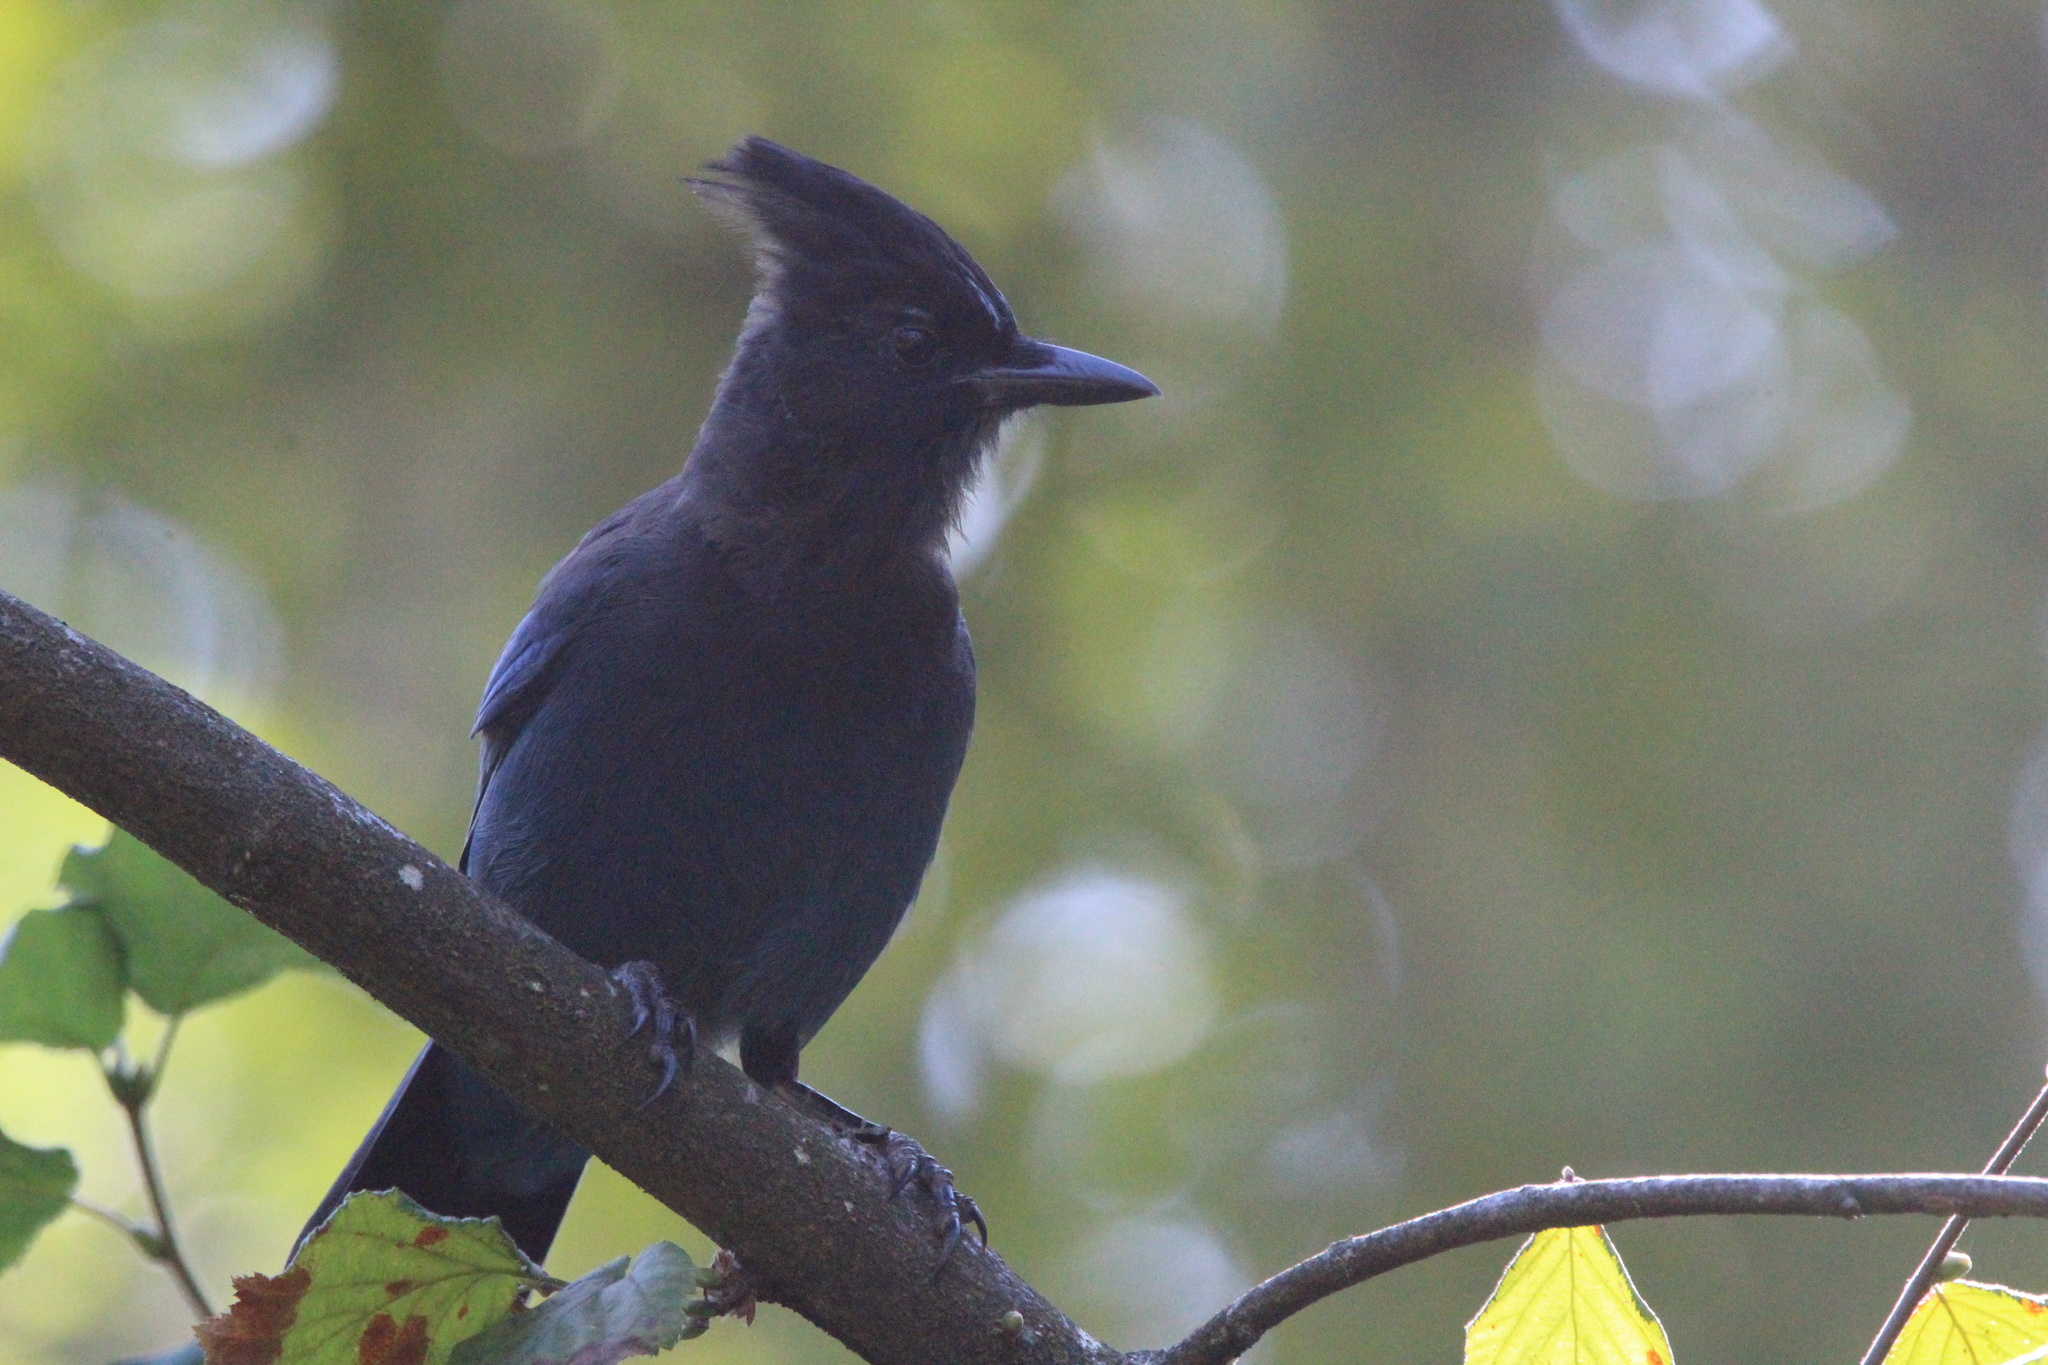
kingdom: Animalia
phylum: Chordata
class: Aves
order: Passeriformes
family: Corvidae
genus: Cyanocitta
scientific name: Cyanocitta stelleri
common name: Steller's jay
